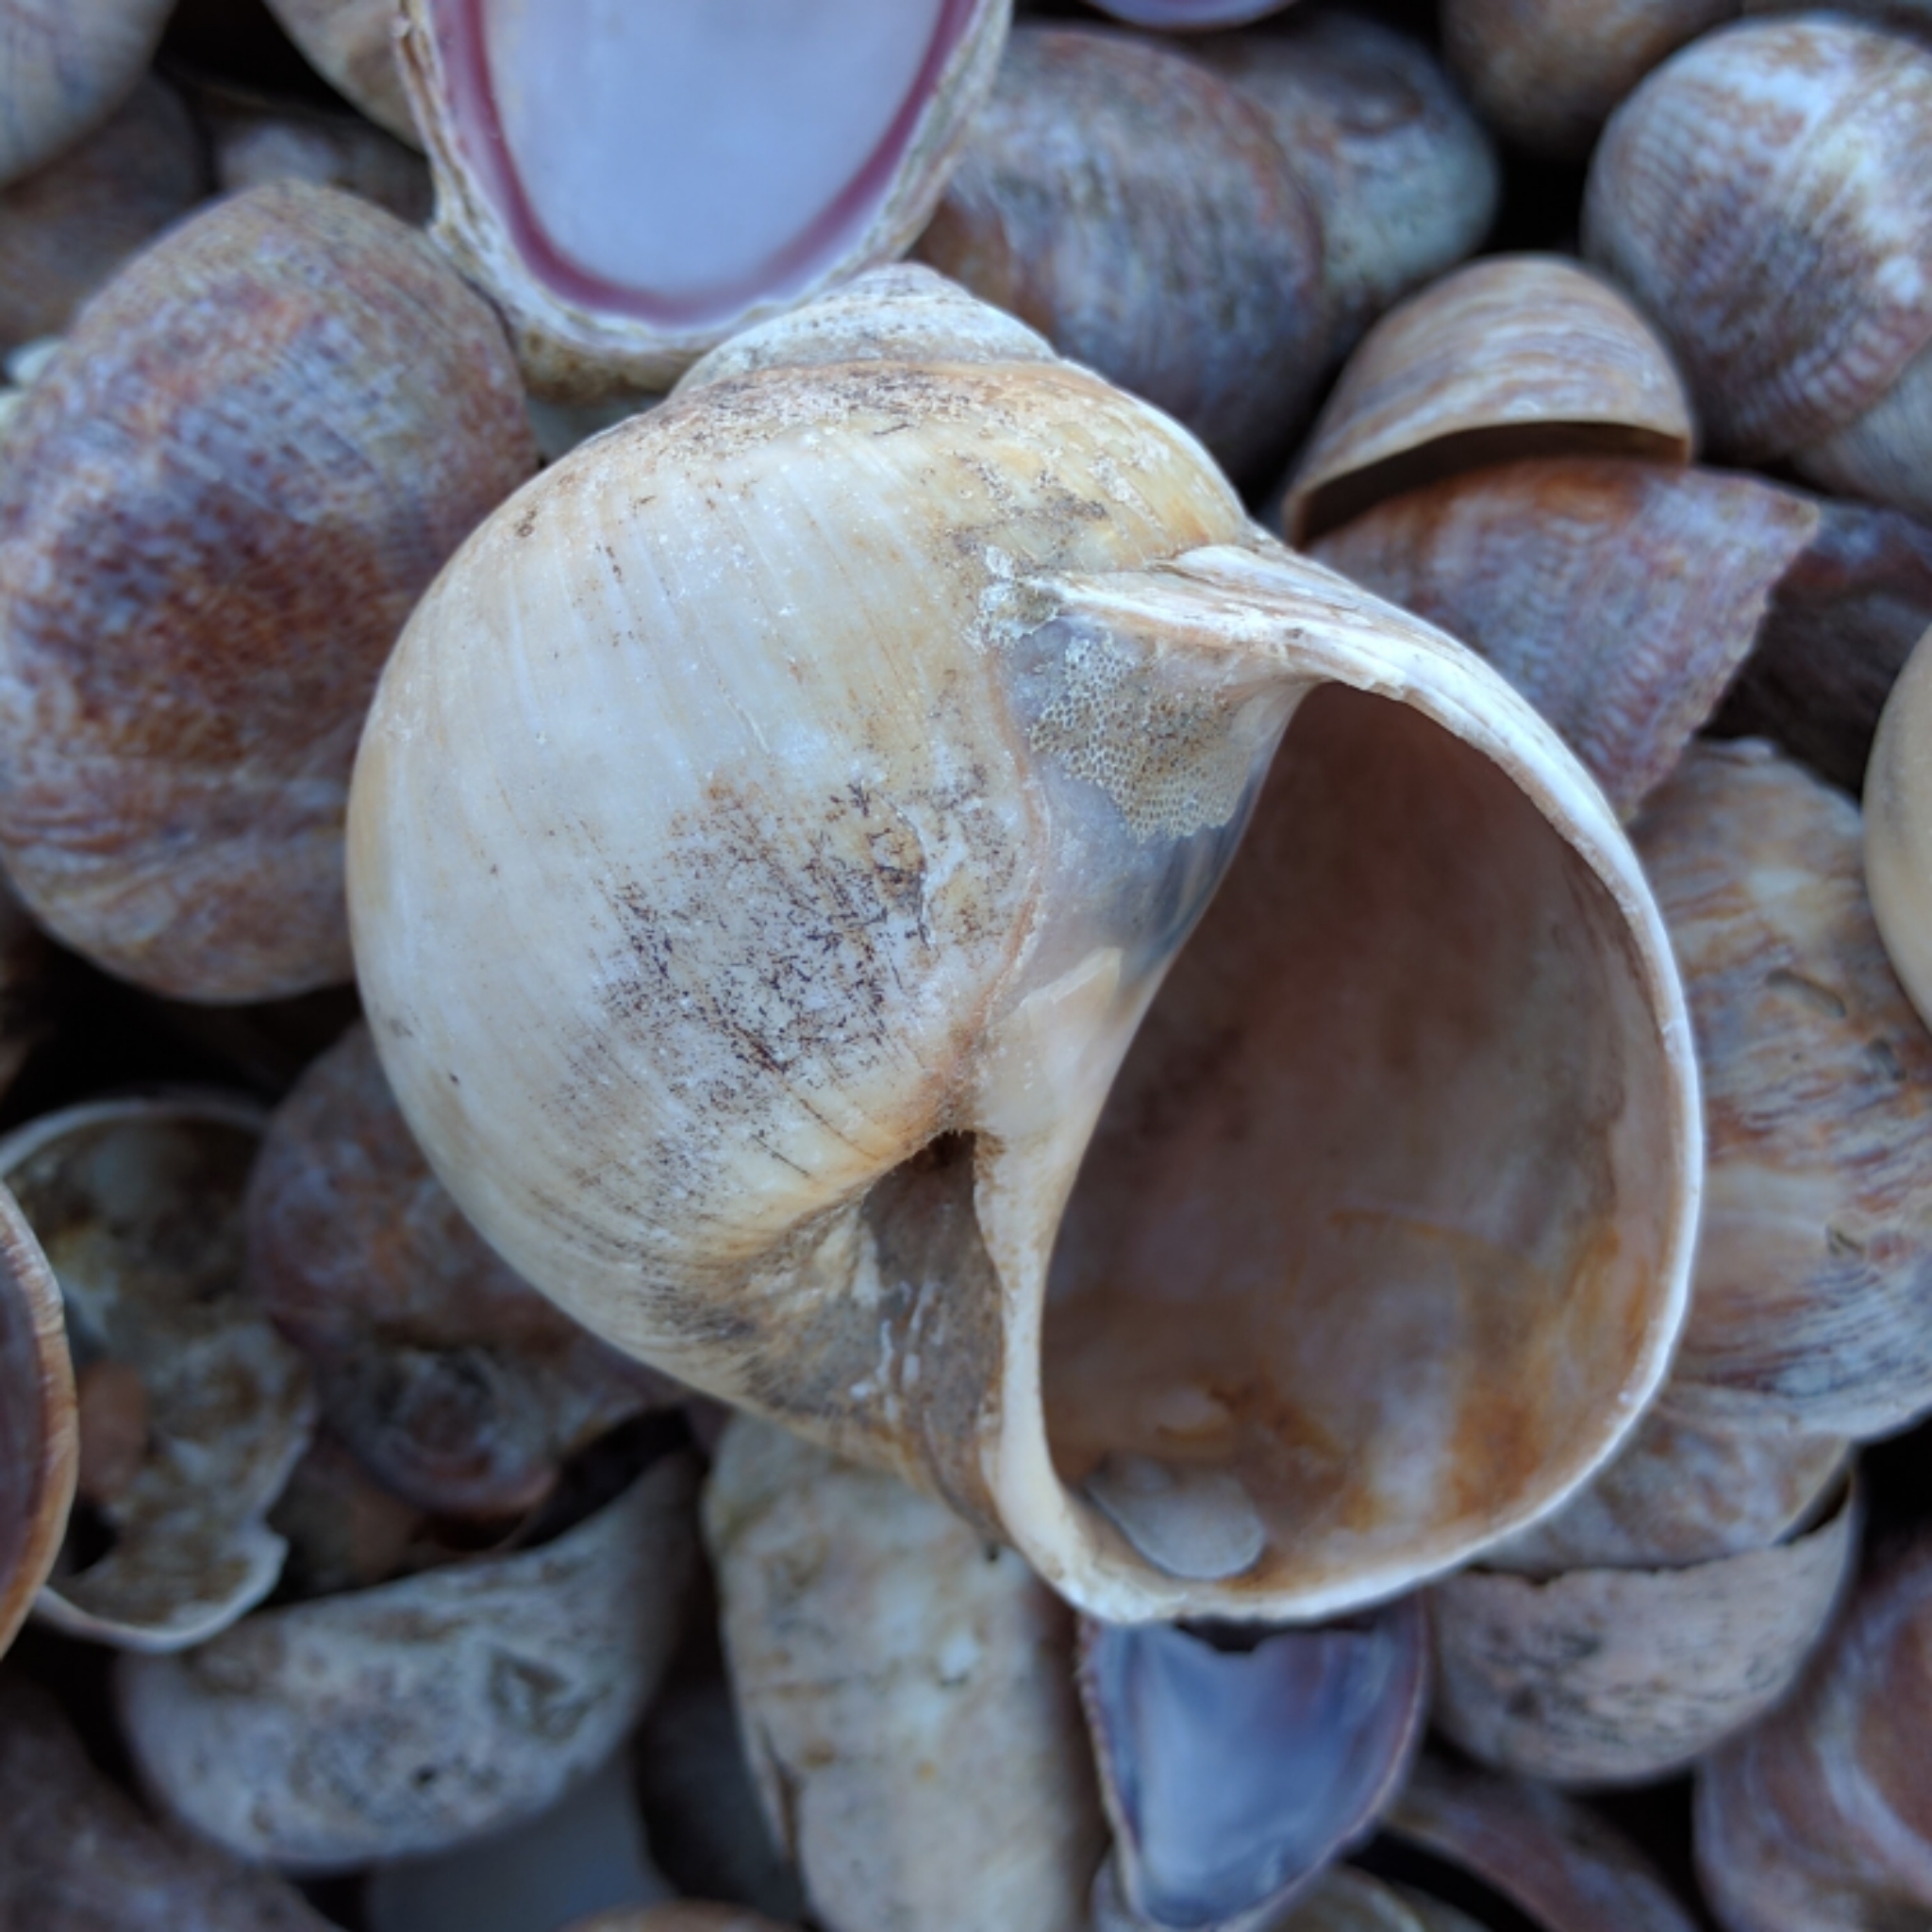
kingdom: Animalia
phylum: Mollusca
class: Gastropoda
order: Littorinimorpha
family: Naticidae
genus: Euspira
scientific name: Euspira heros
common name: Common northern moonsnail
